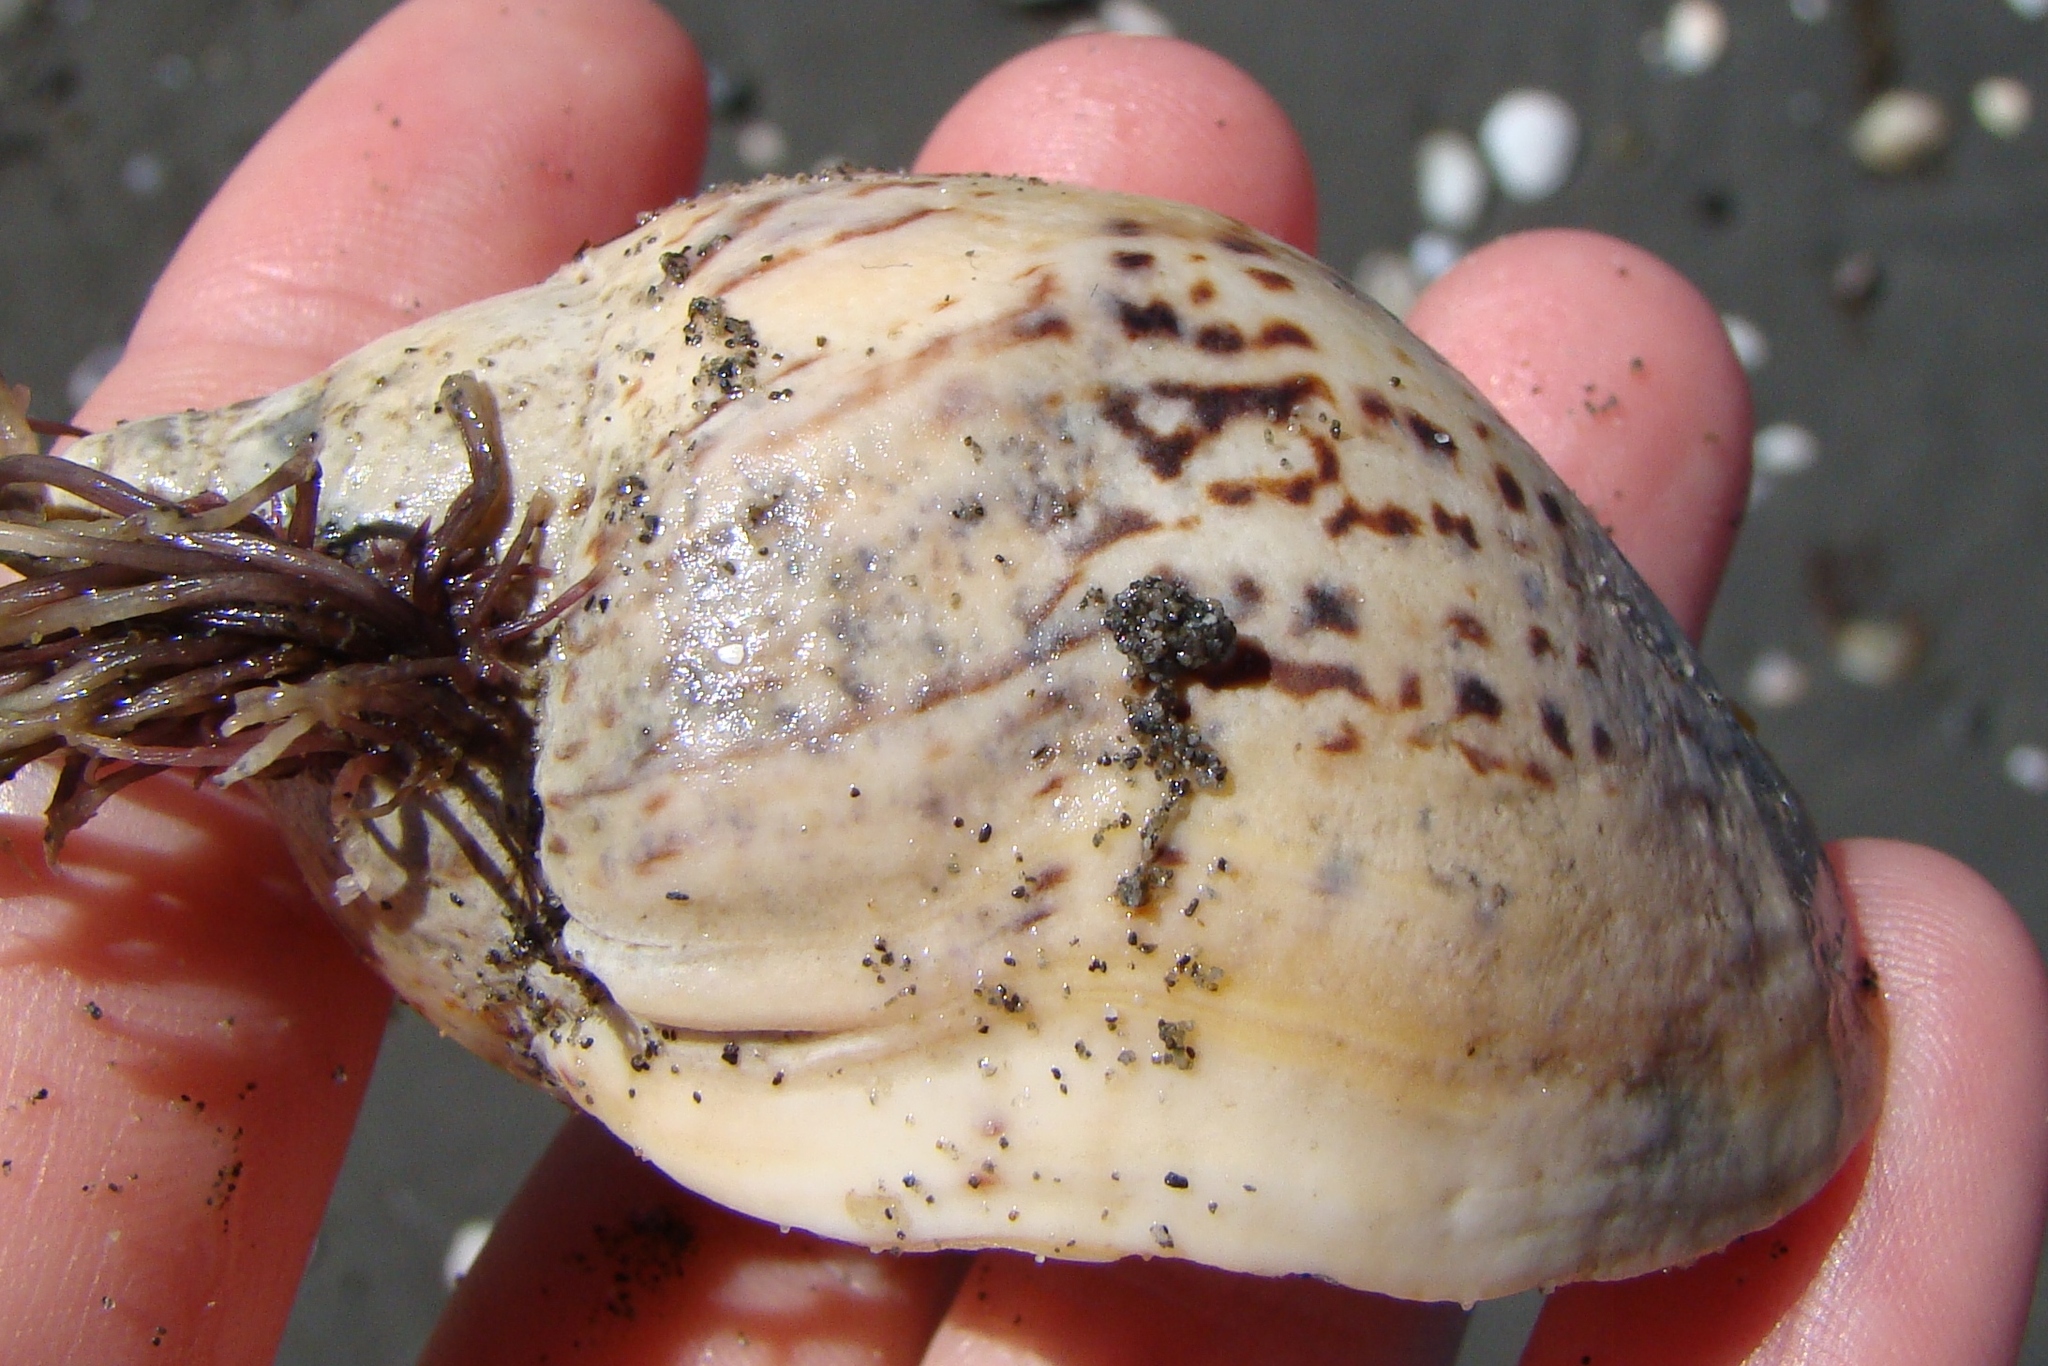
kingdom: Animalia
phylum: Mollusca
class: Gastropoda
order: Neogastropoda
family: Cominellidae
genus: Cominella
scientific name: Cominella adspersa
